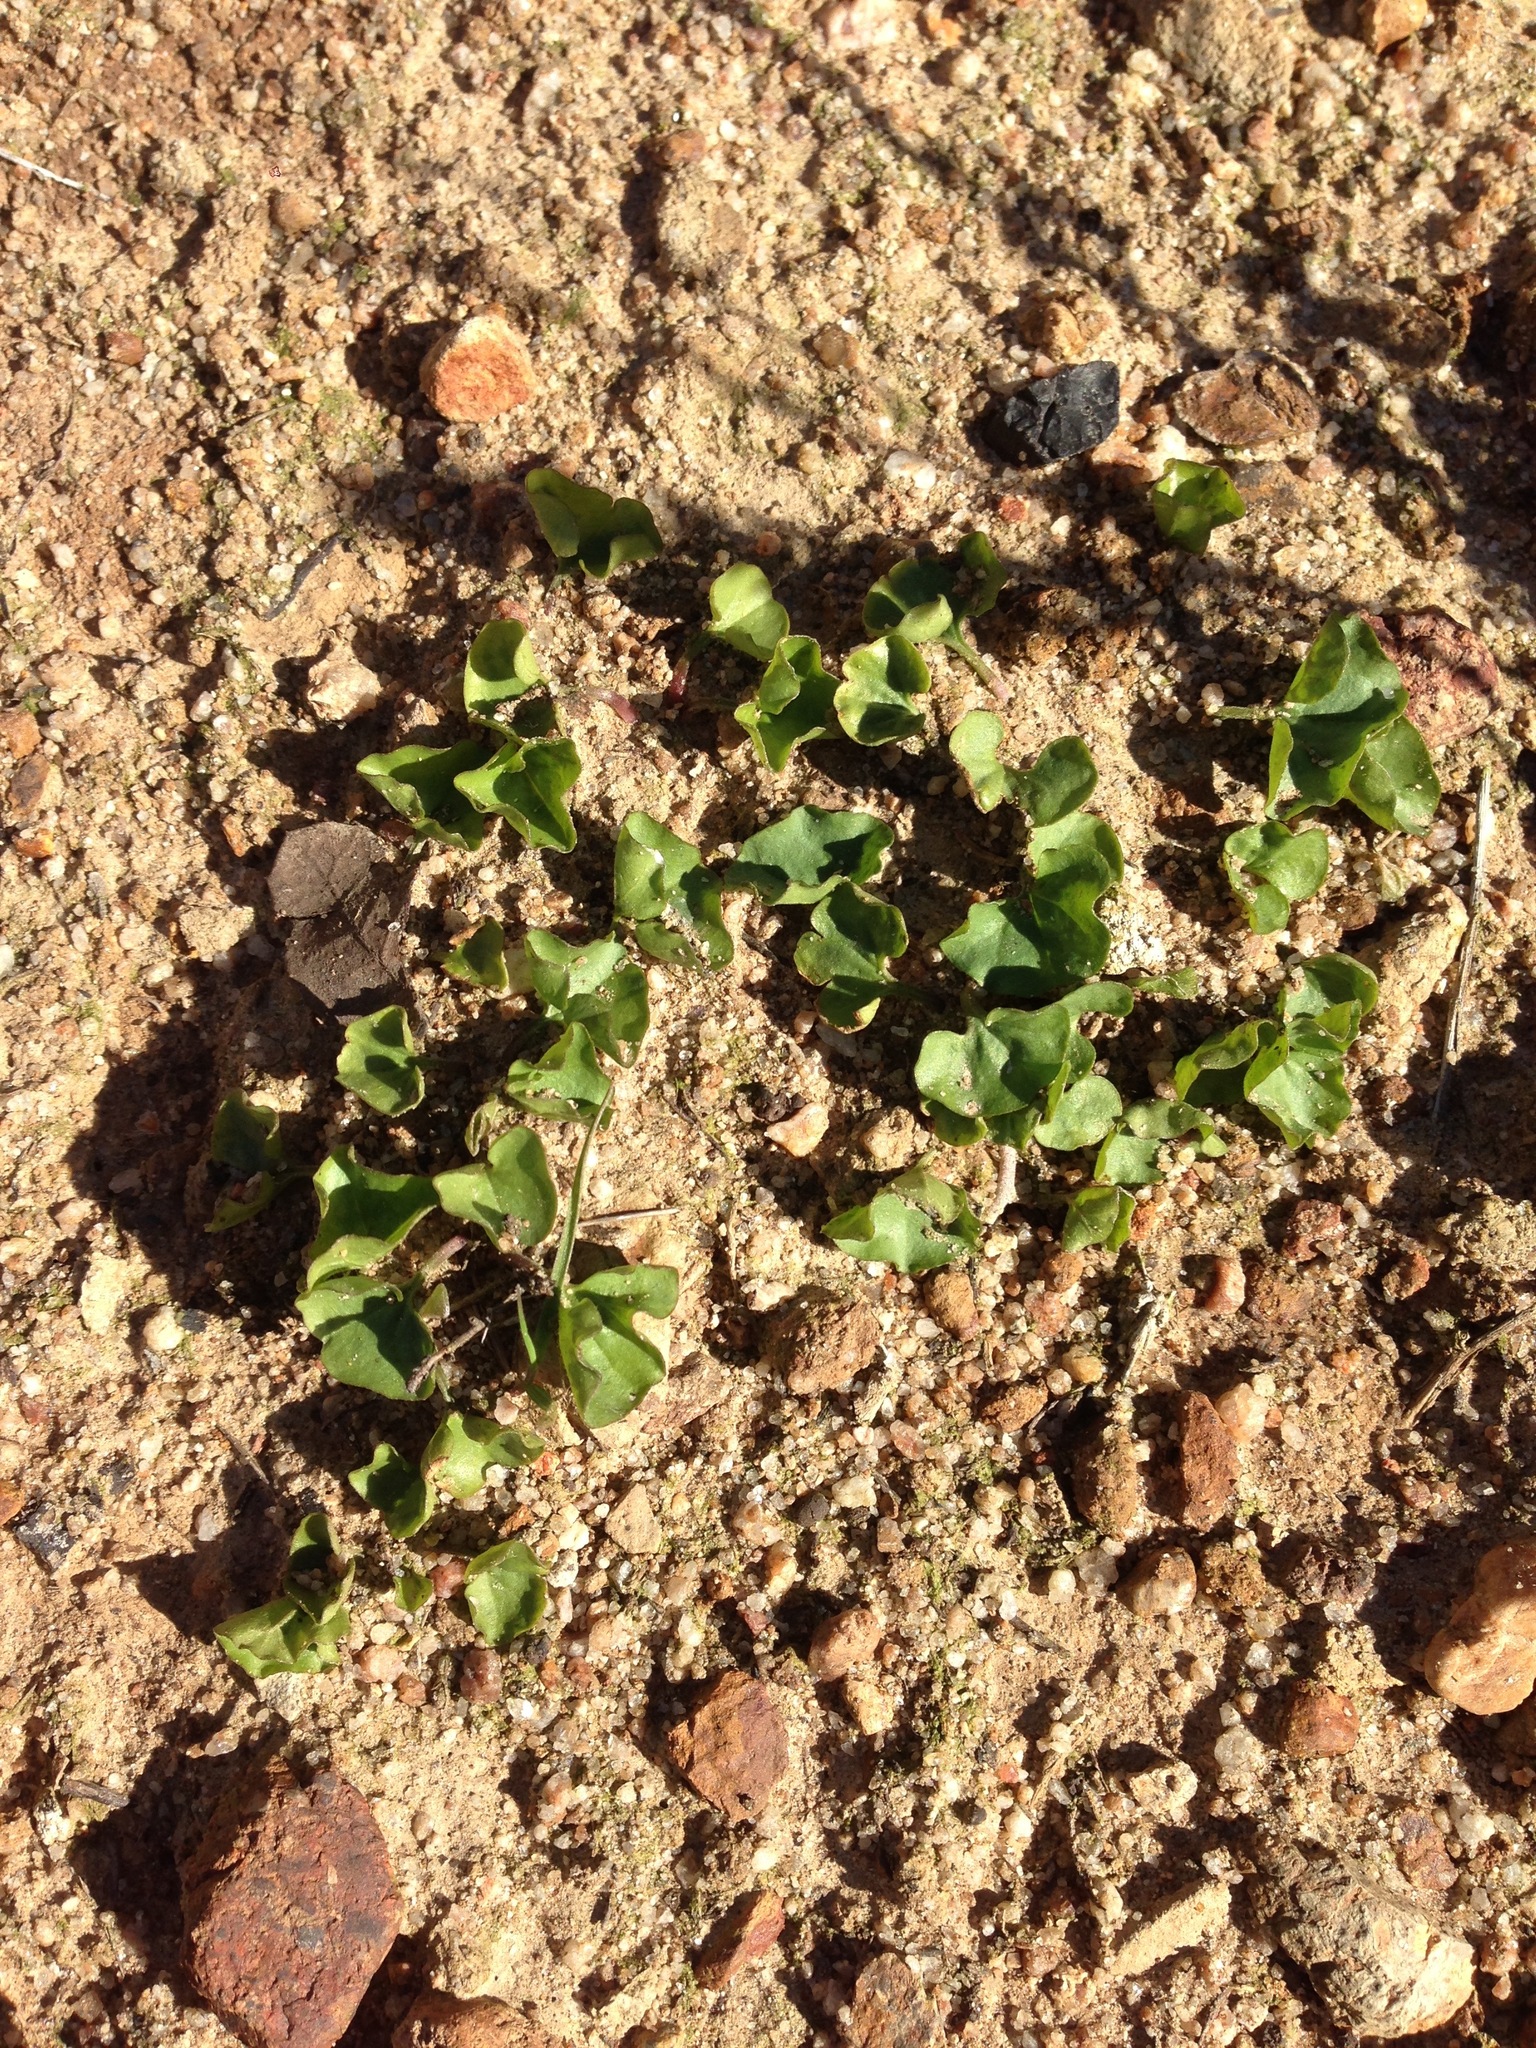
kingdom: Plantae
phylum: Tracheophyta
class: Magnoliopsida
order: Solanales
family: Convolvulaceae
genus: Dichondra
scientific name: Dichondra occidentalis
